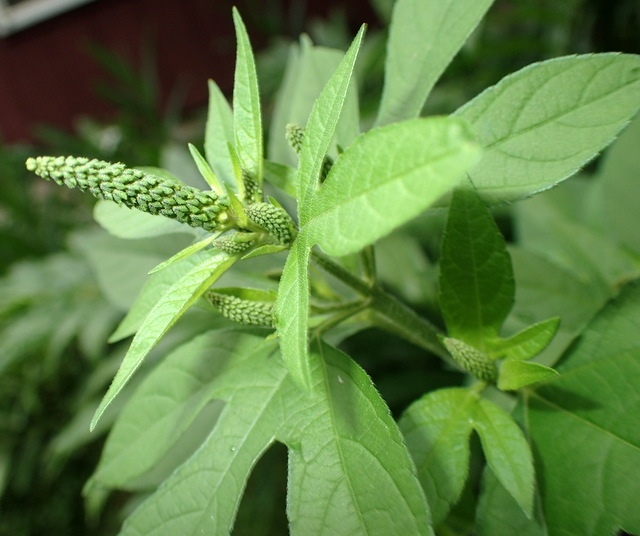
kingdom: Plantae
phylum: Tracheophyta
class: Magnoliopsida
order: Asterales
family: Asteraceae
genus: Ambrosia
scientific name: Ambrosia trifida
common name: Giant ragweed
